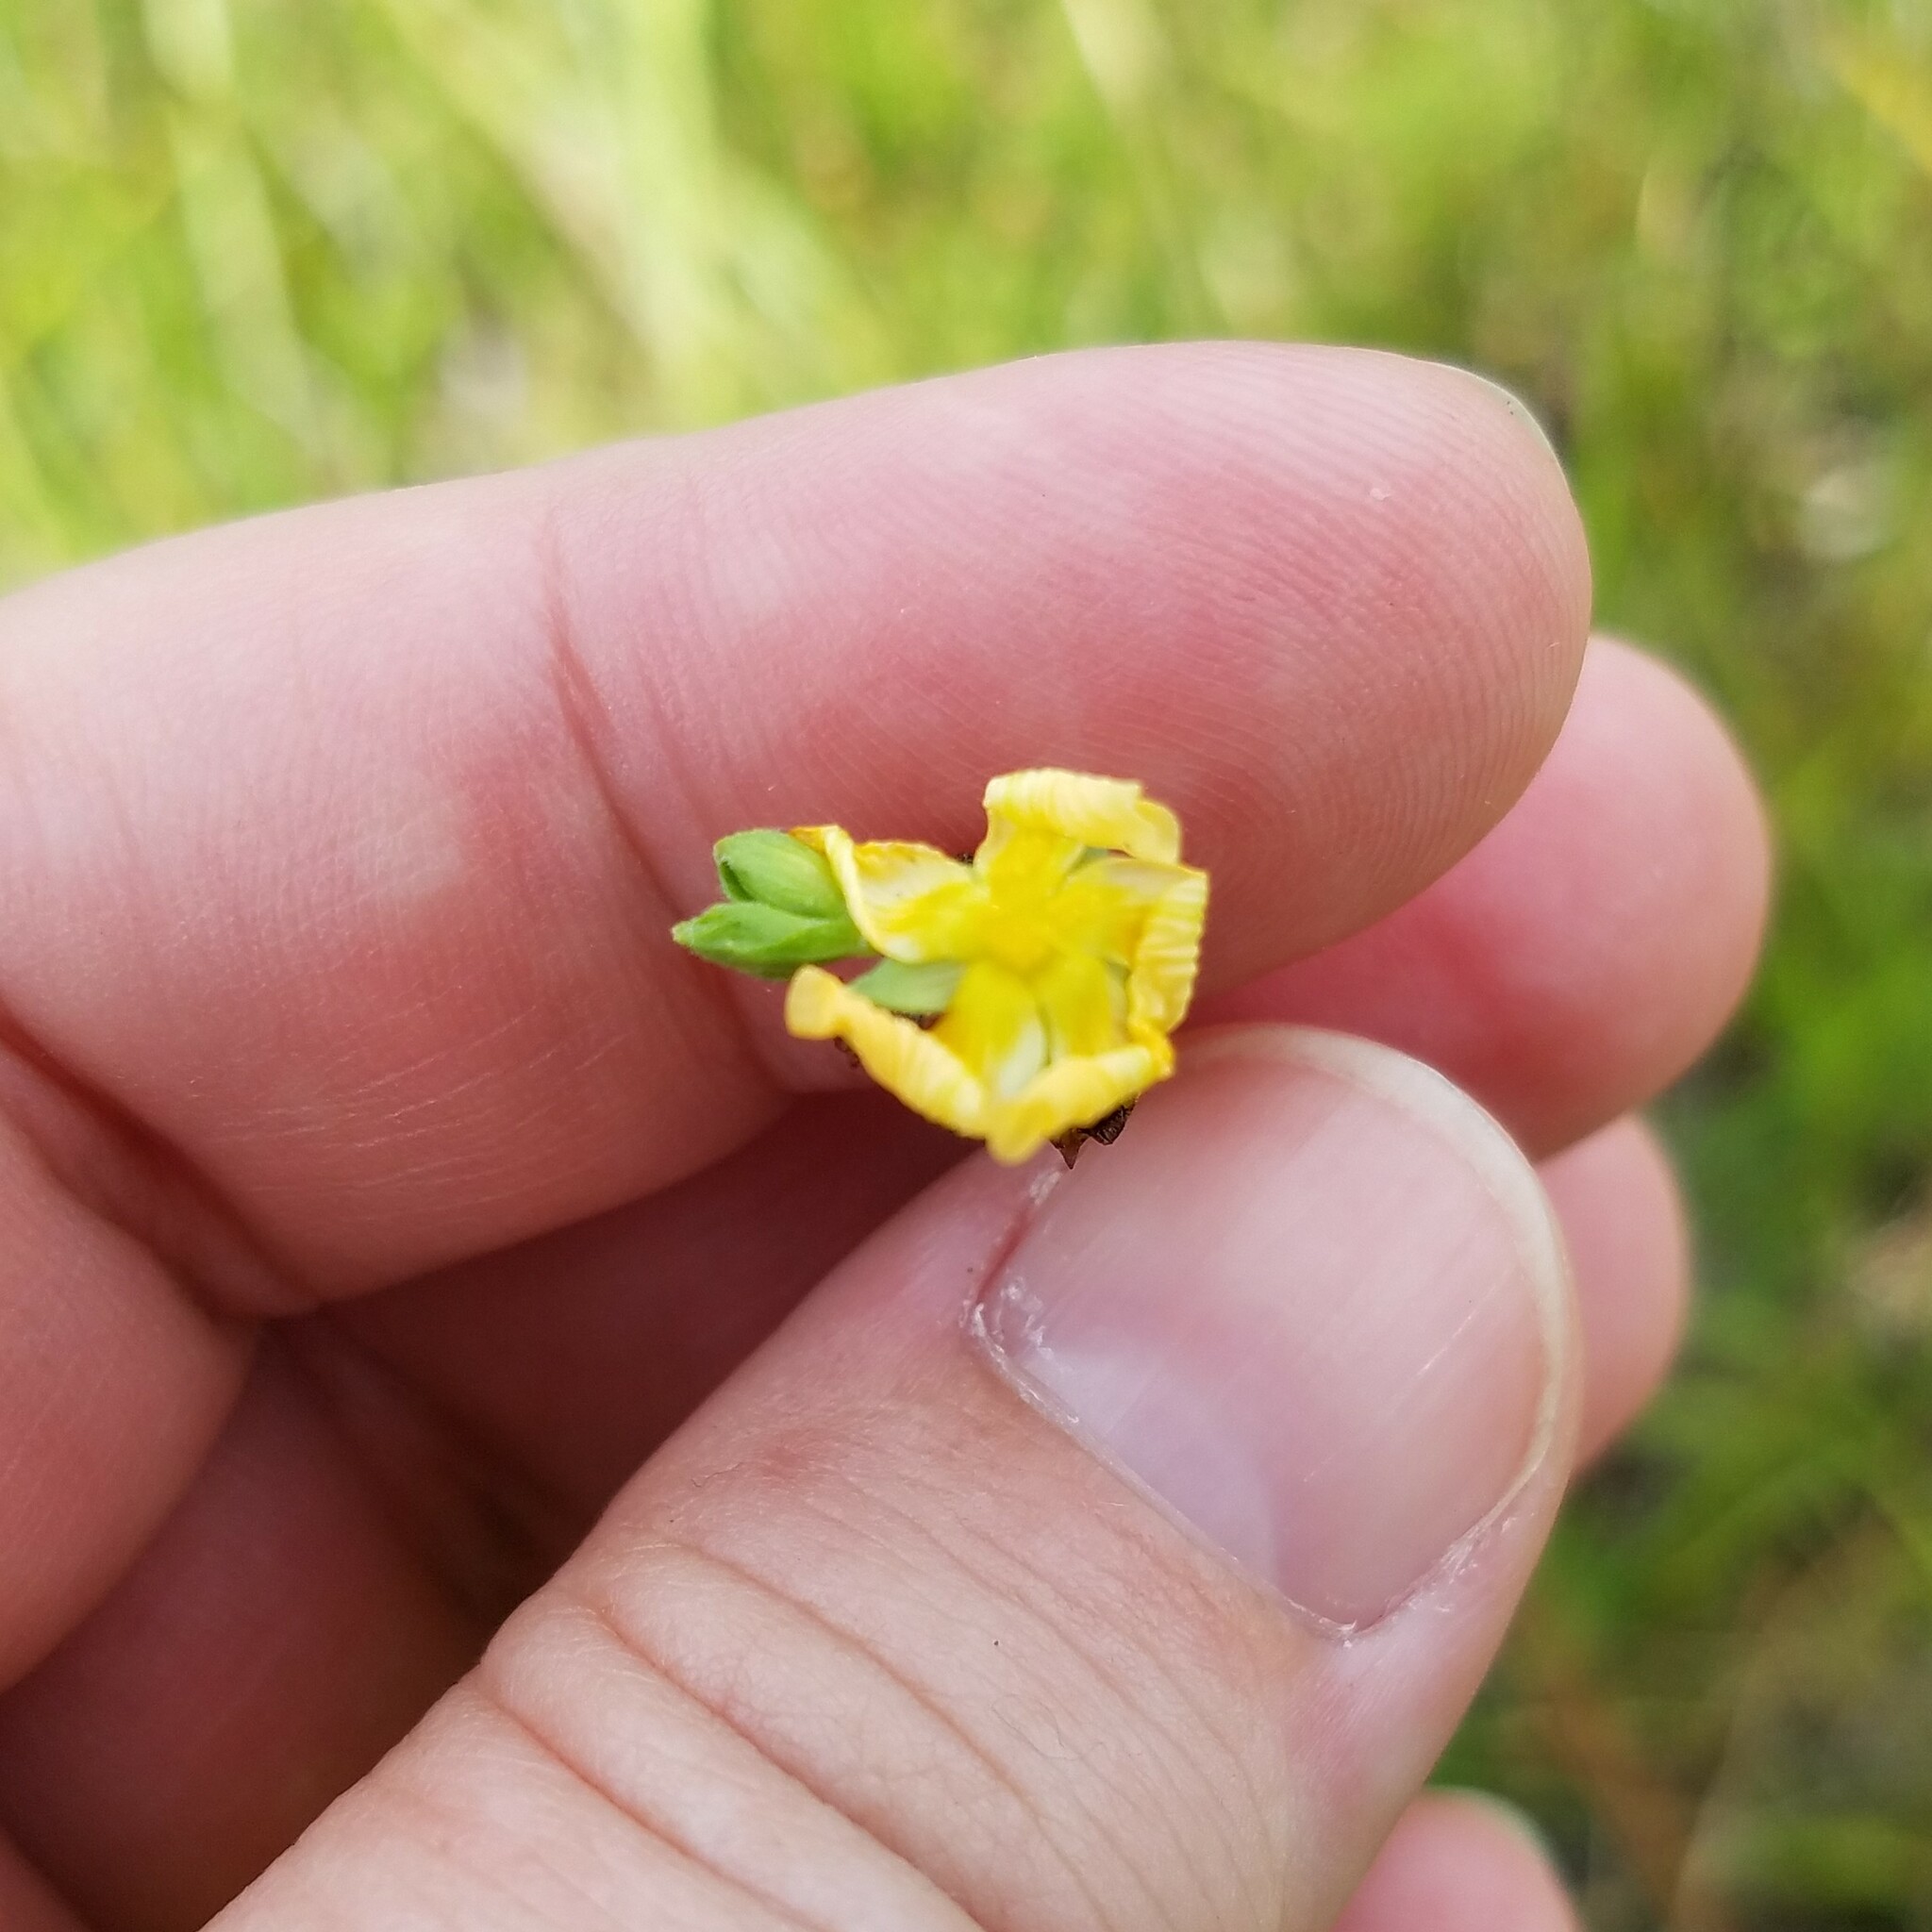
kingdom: Plantae
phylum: Tracheophyta
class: Magnoliopsida
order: Malpighiales
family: Hypericaceae
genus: Hypericum
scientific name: Hypericum setosum
